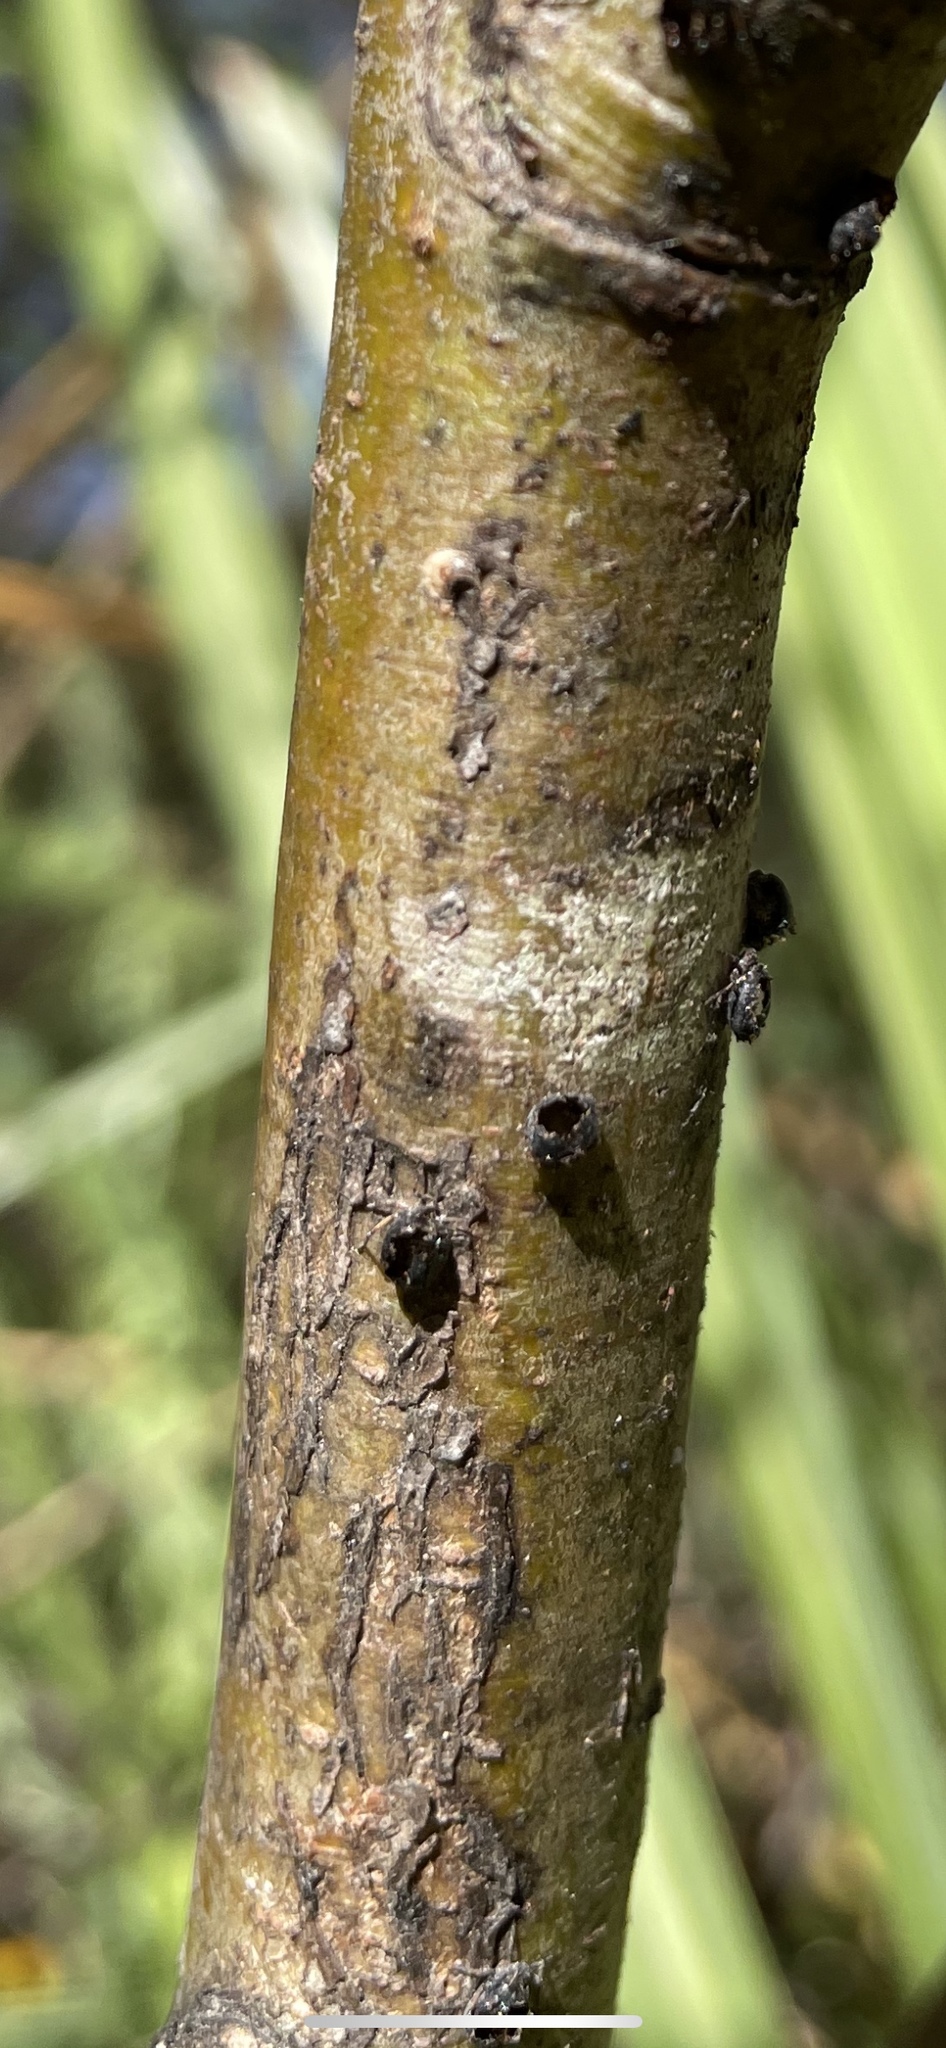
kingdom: Animalia
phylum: Arthropoda
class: Insecta
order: Hymenoptera
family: Braconidae
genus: Pauesia
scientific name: Pauesia nigrovaria
